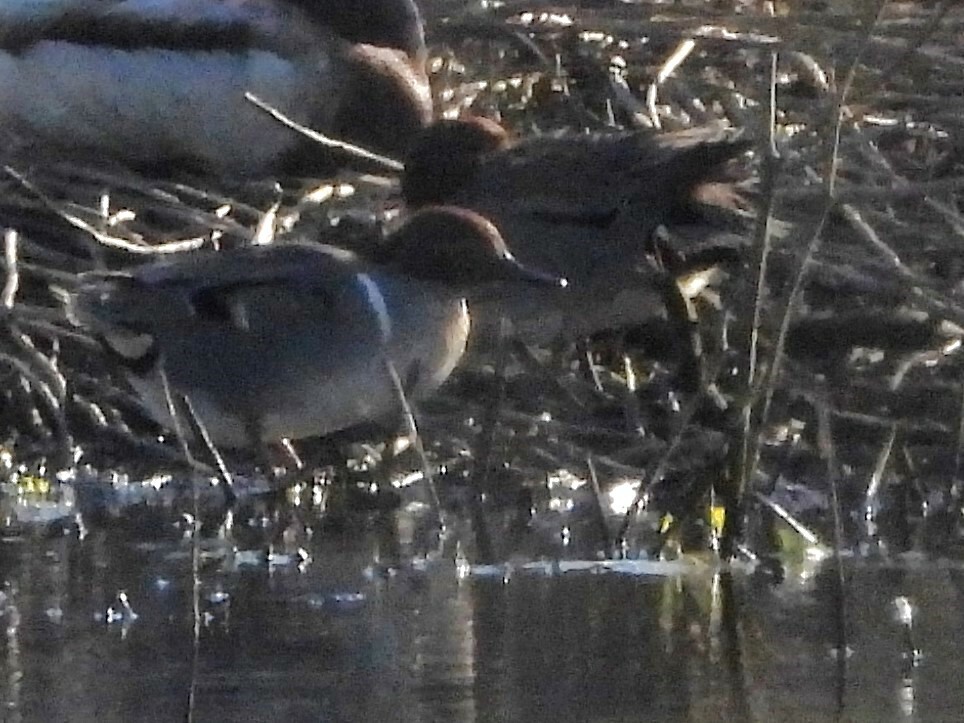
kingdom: Animalia
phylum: Chordata
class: Aves
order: Anseriformes
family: Anatidae
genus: Anas
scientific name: Anas crecca
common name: Eurasian teal
